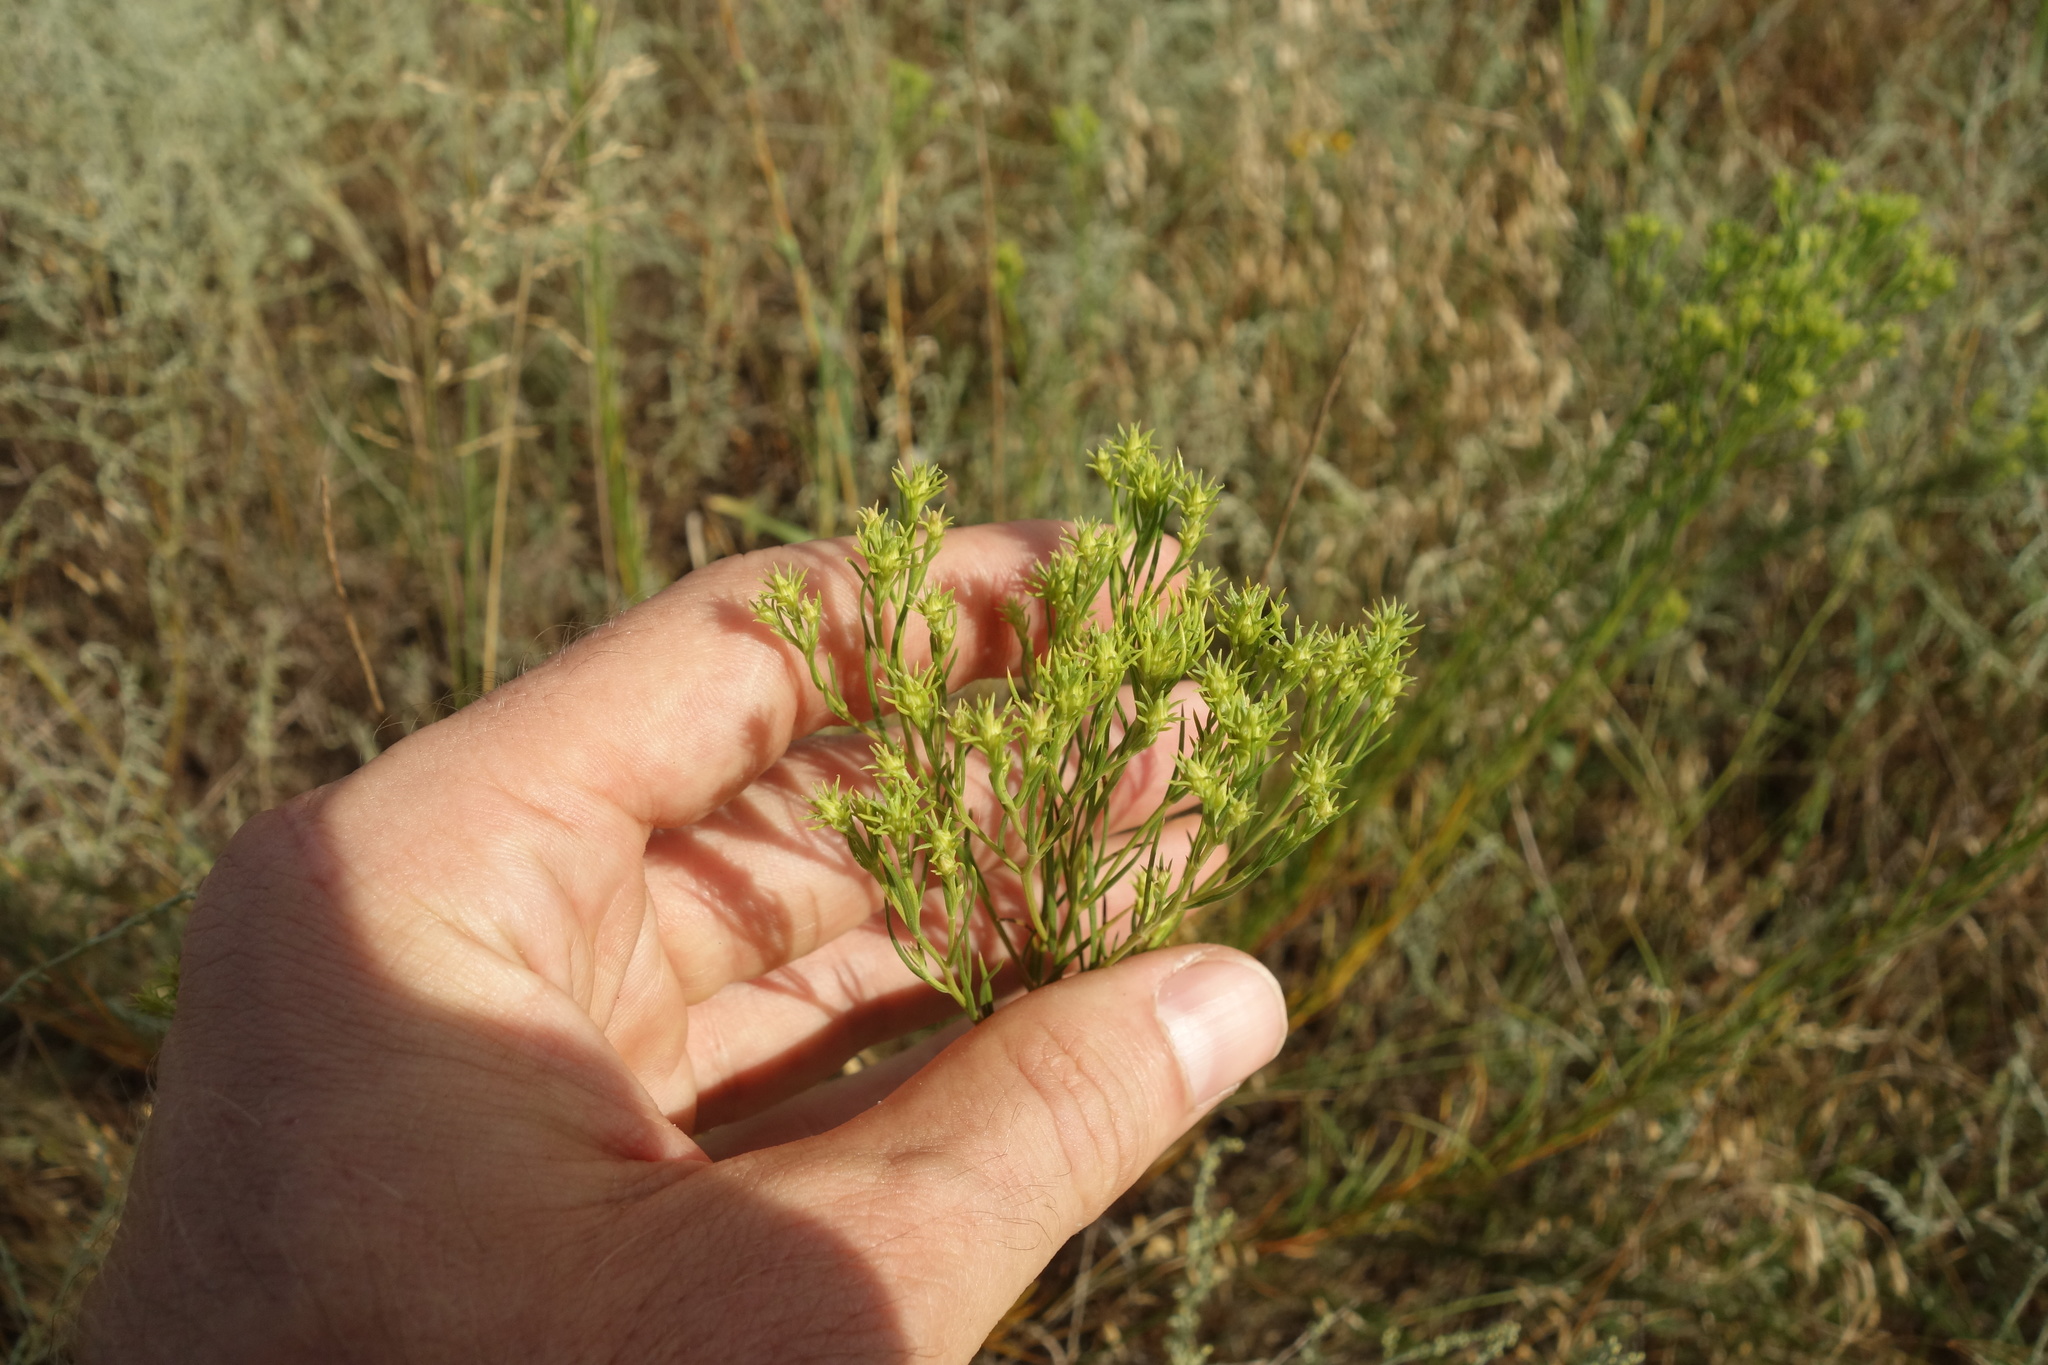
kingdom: Plantae
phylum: Tracheophyta
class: Magnoliopsida
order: Asterales
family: Asteraceae
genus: Galatella
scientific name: Galatella linosyris
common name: Goldilocks aster
